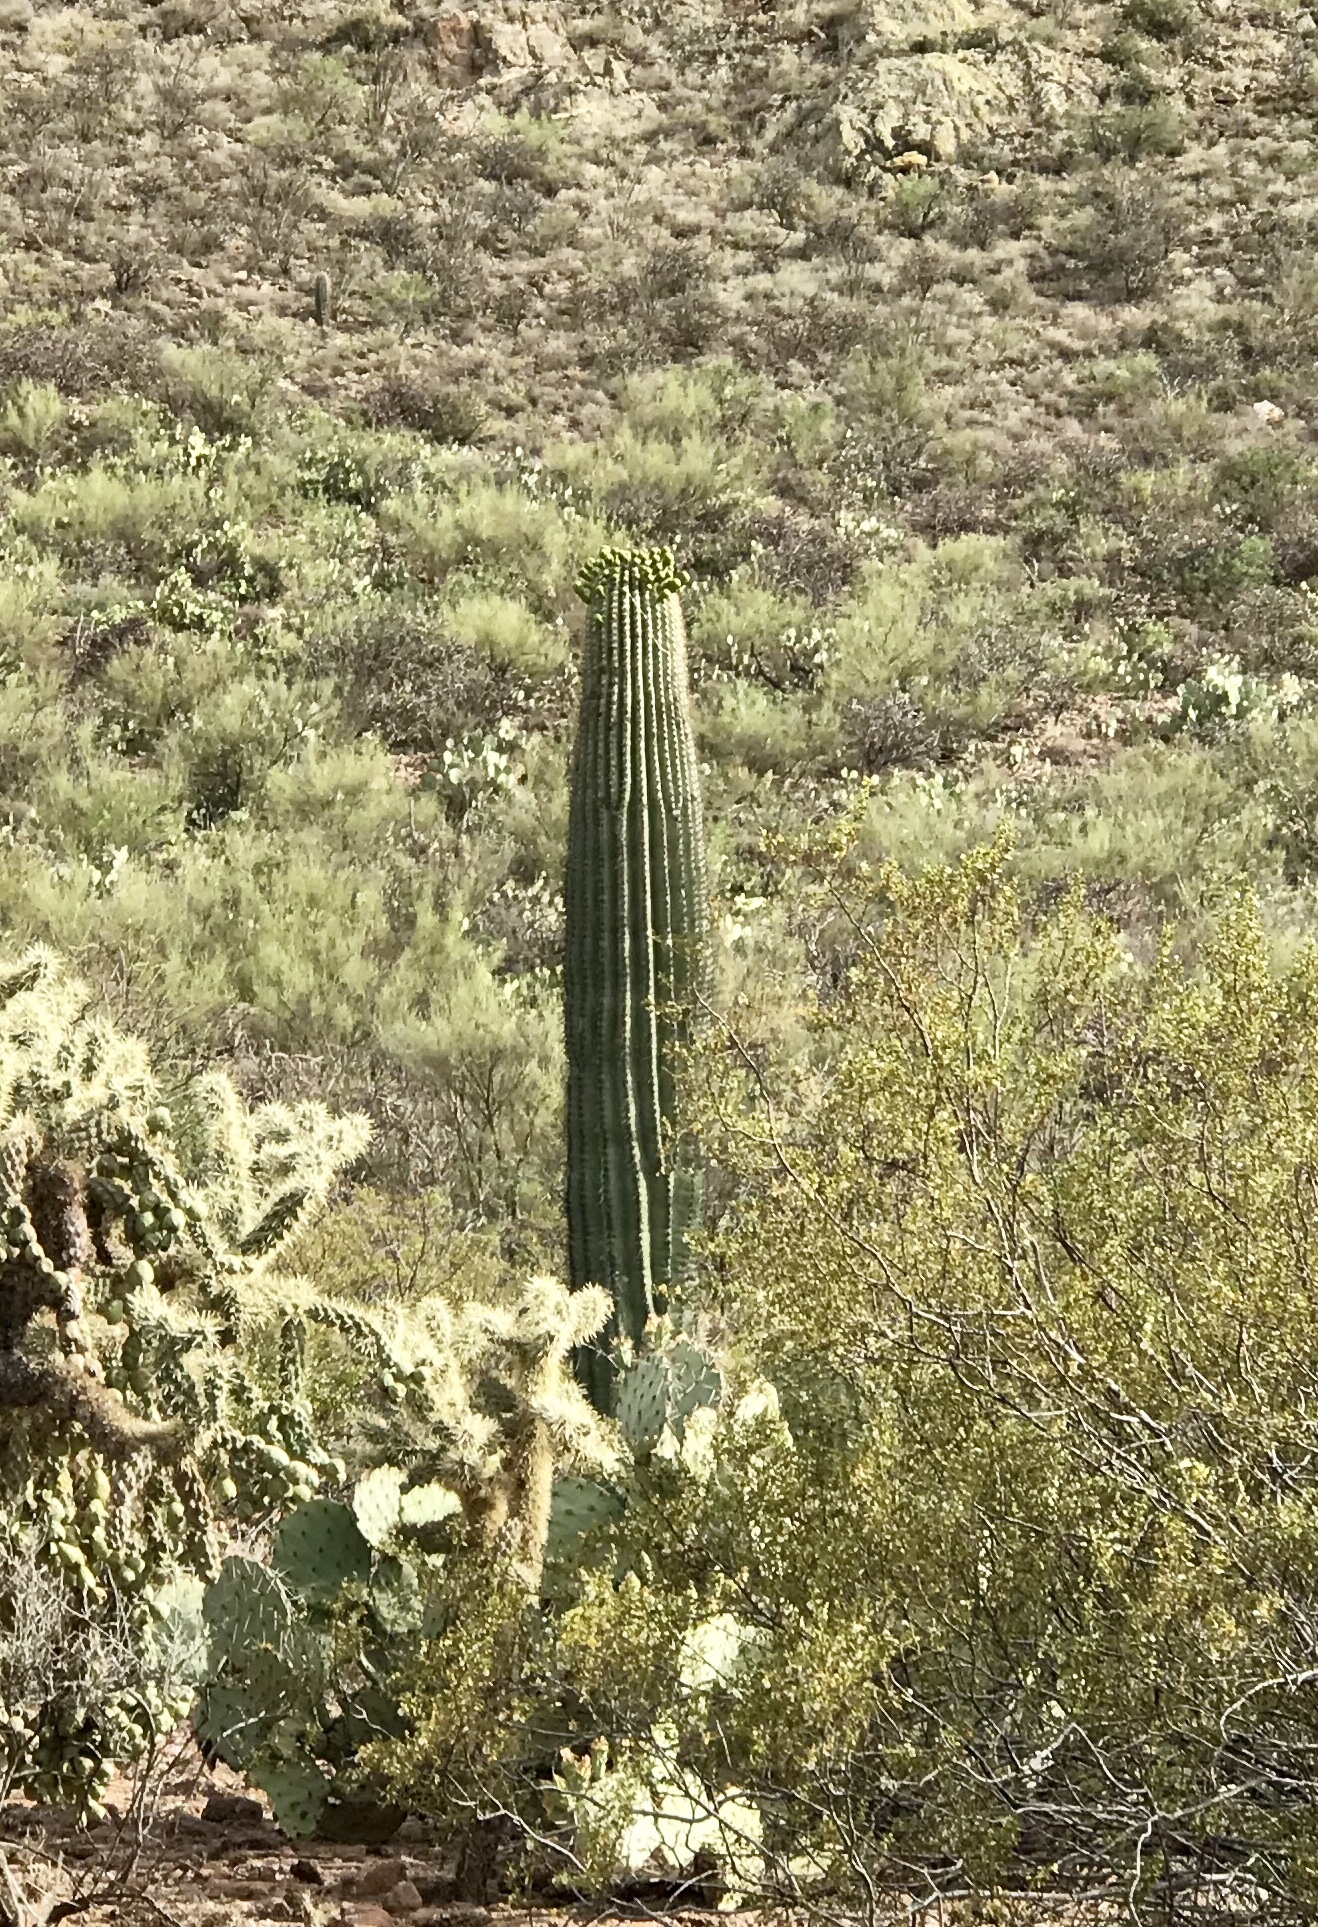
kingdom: Plantae
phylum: Tracheophyta
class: Magnoliopsida
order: Caryophyllales
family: Cactaceae
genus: Carnegiea
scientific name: Carnegiea gigantea
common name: Saguaro
